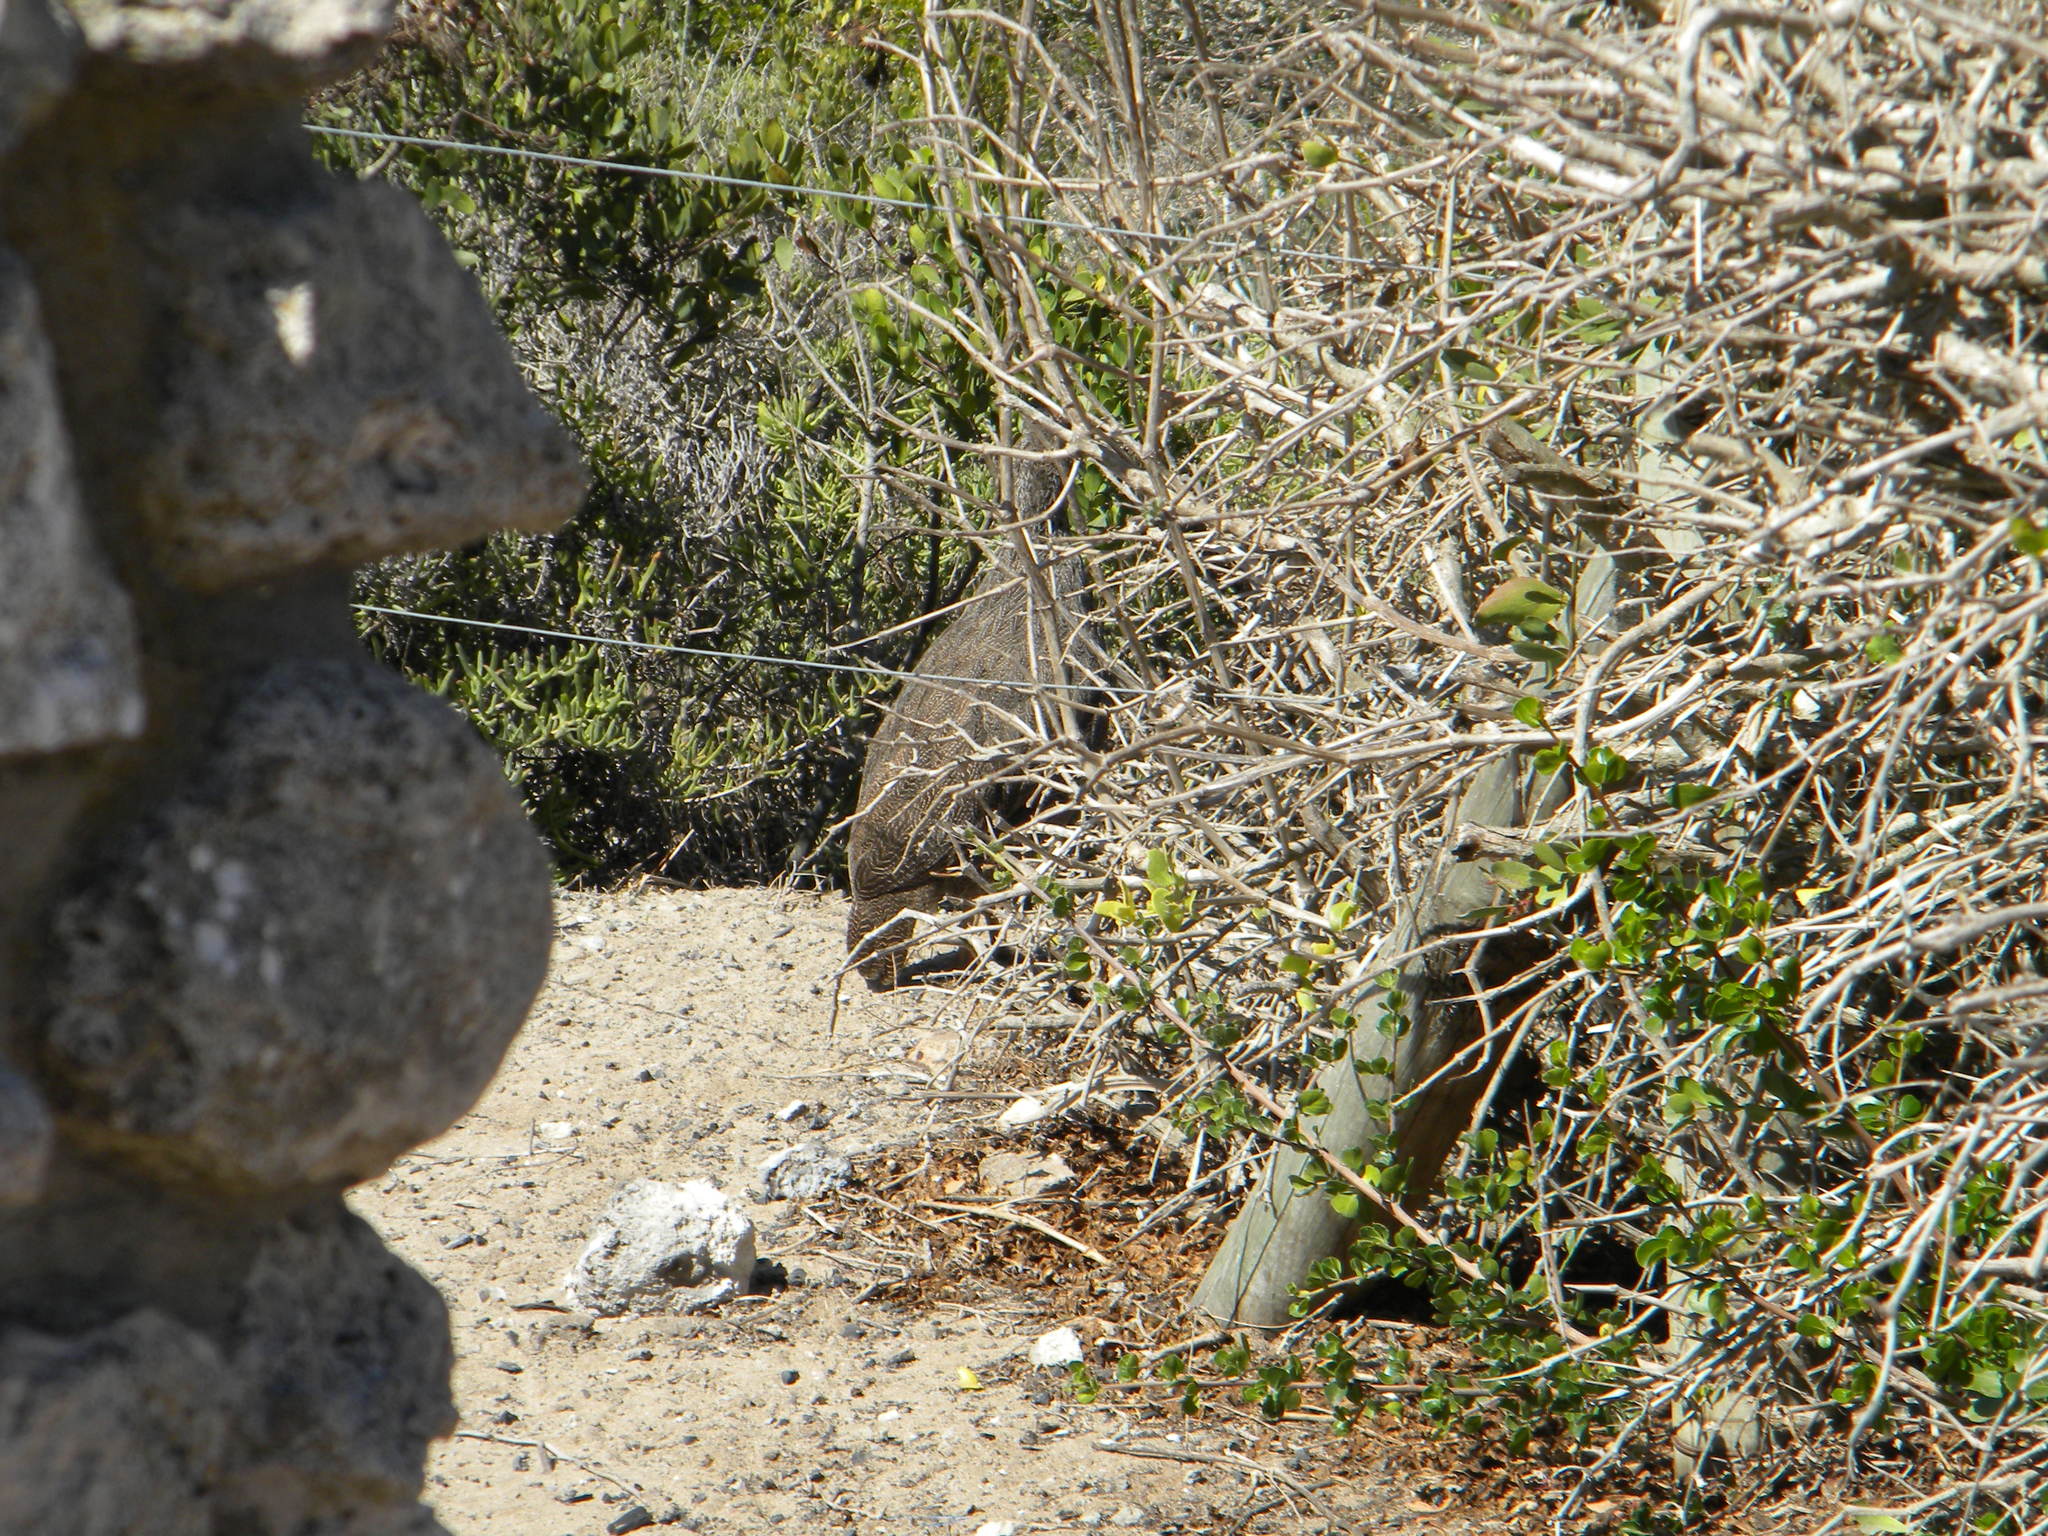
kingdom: Animalia
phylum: Chordata
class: Aves
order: Galliformes
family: Phasianidae
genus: Pternistis
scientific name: Pternistis capensis
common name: Cape spurfowl
